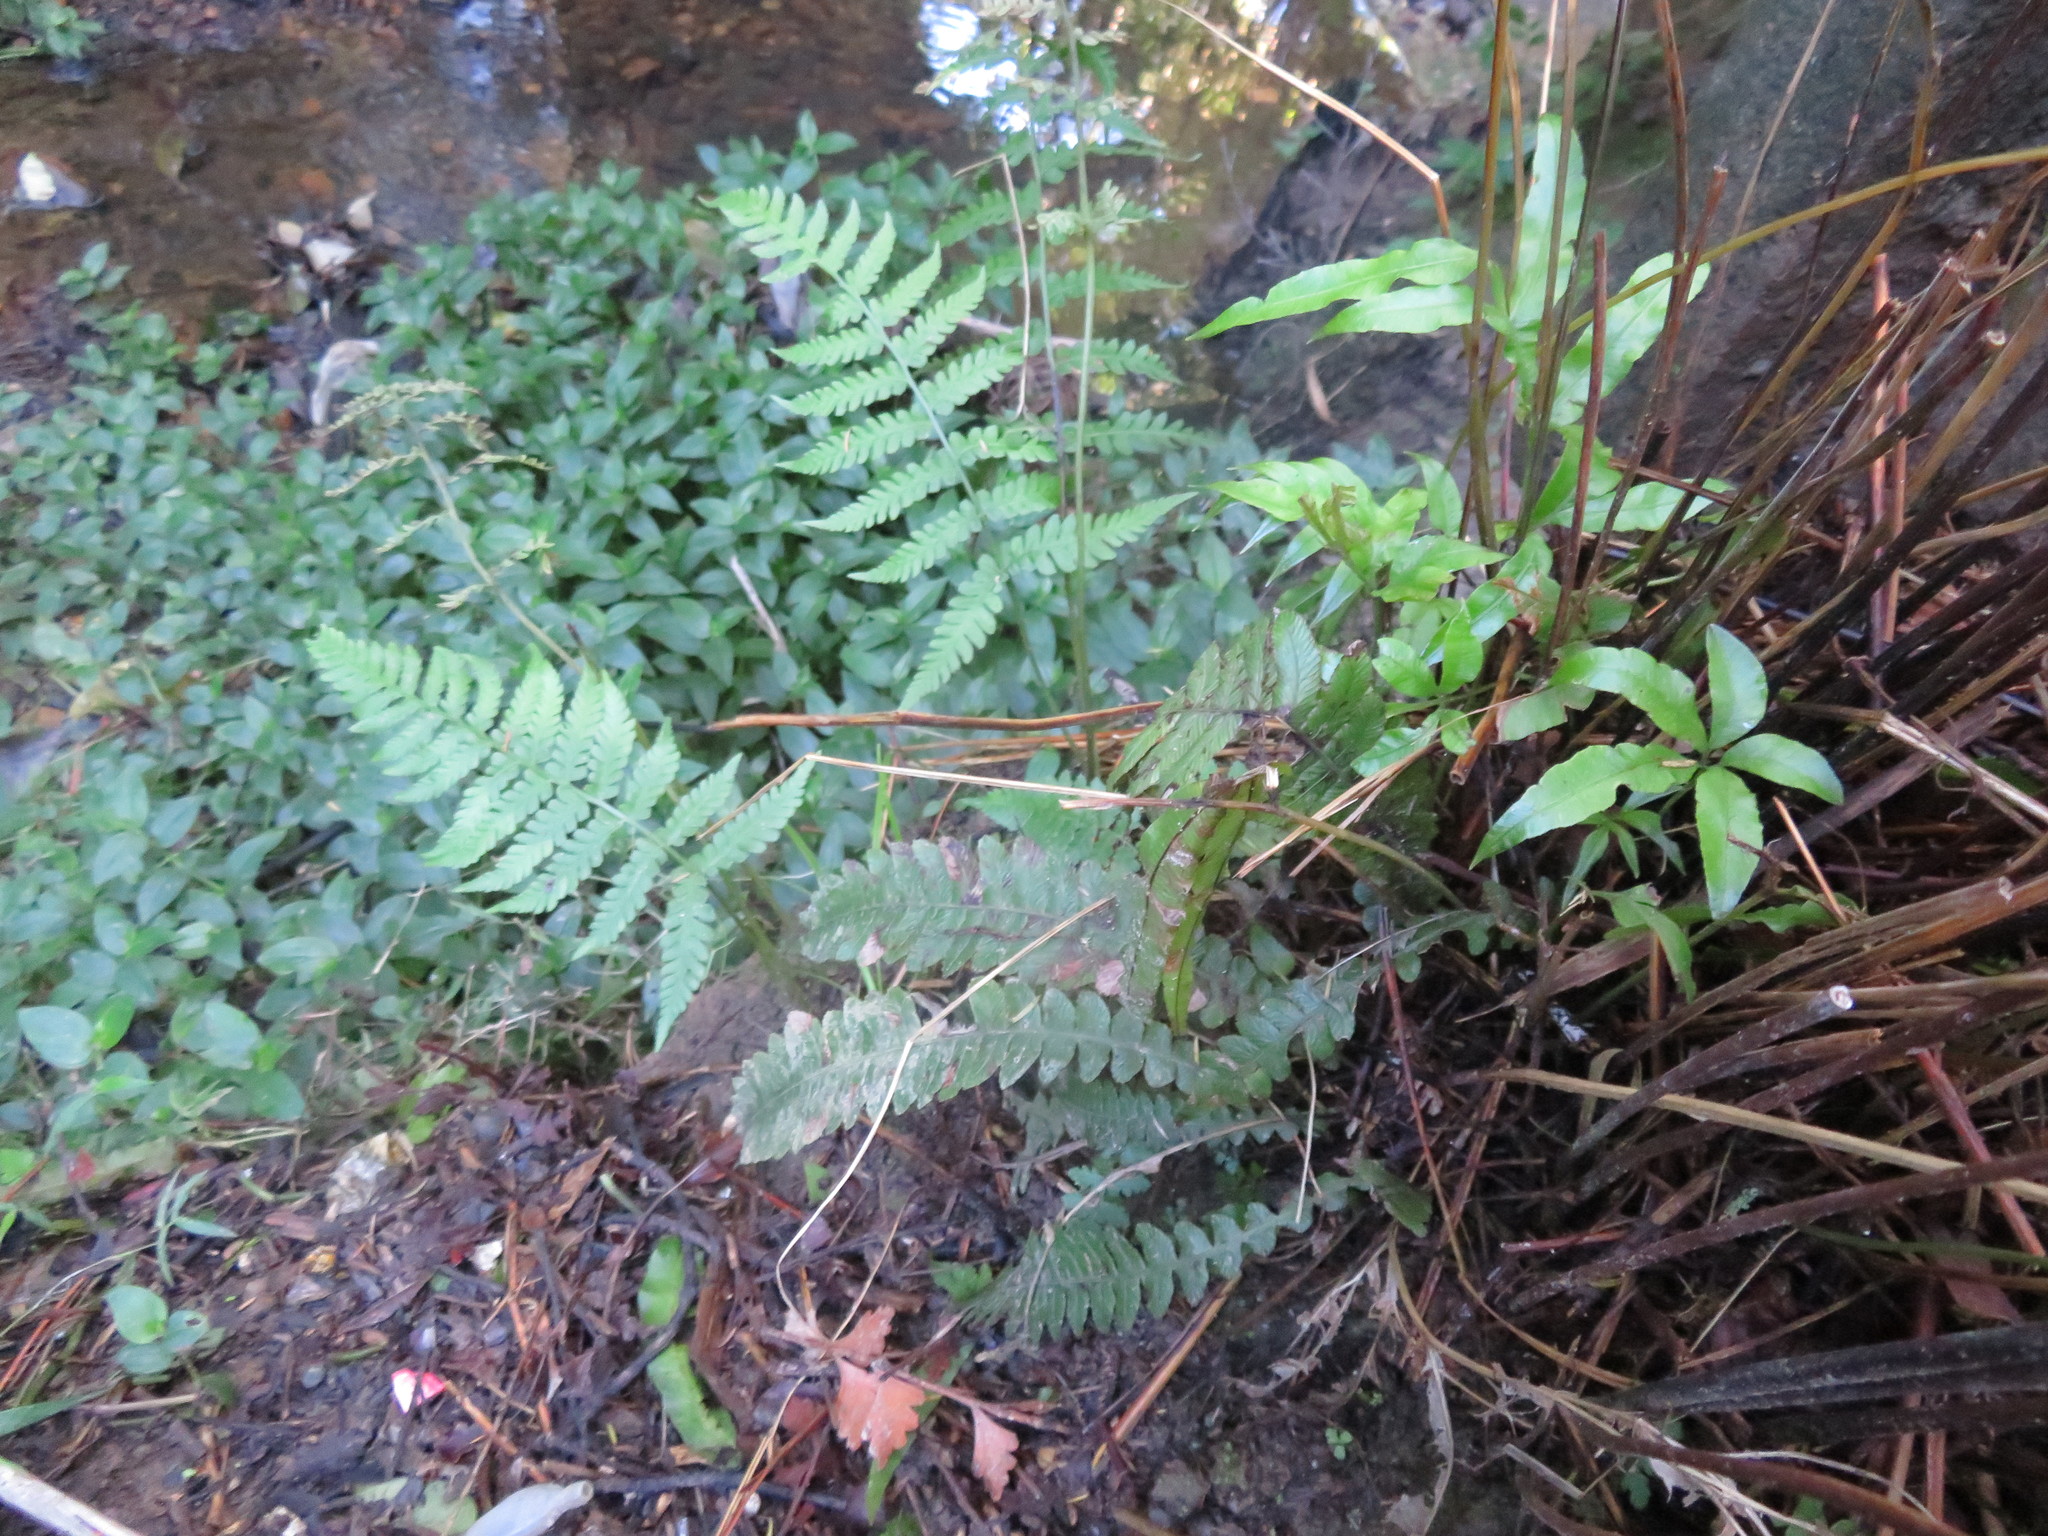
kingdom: Plantae
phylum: Tracheophyta
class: Polypodiopsida
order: Polypodiales
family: Blechnaceae
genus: Austroblechnum
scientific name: Austroblechnum lanceolatum
